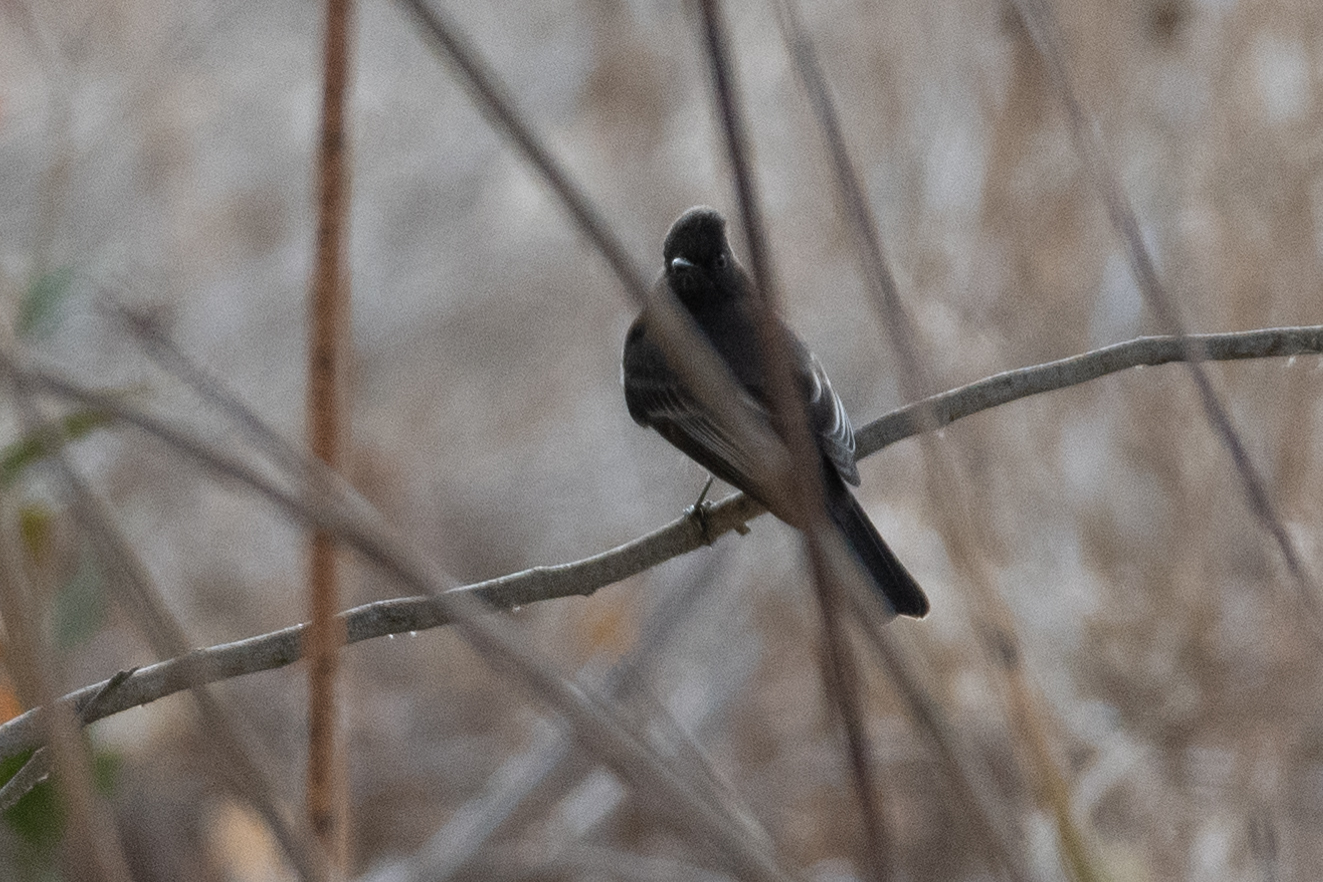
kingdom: Animalia
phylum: Chordata
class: Aves
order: Passeriformes
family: Tyrannidae
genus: Sayornis
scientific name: Sayornis nigricans
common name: Black phoebe
